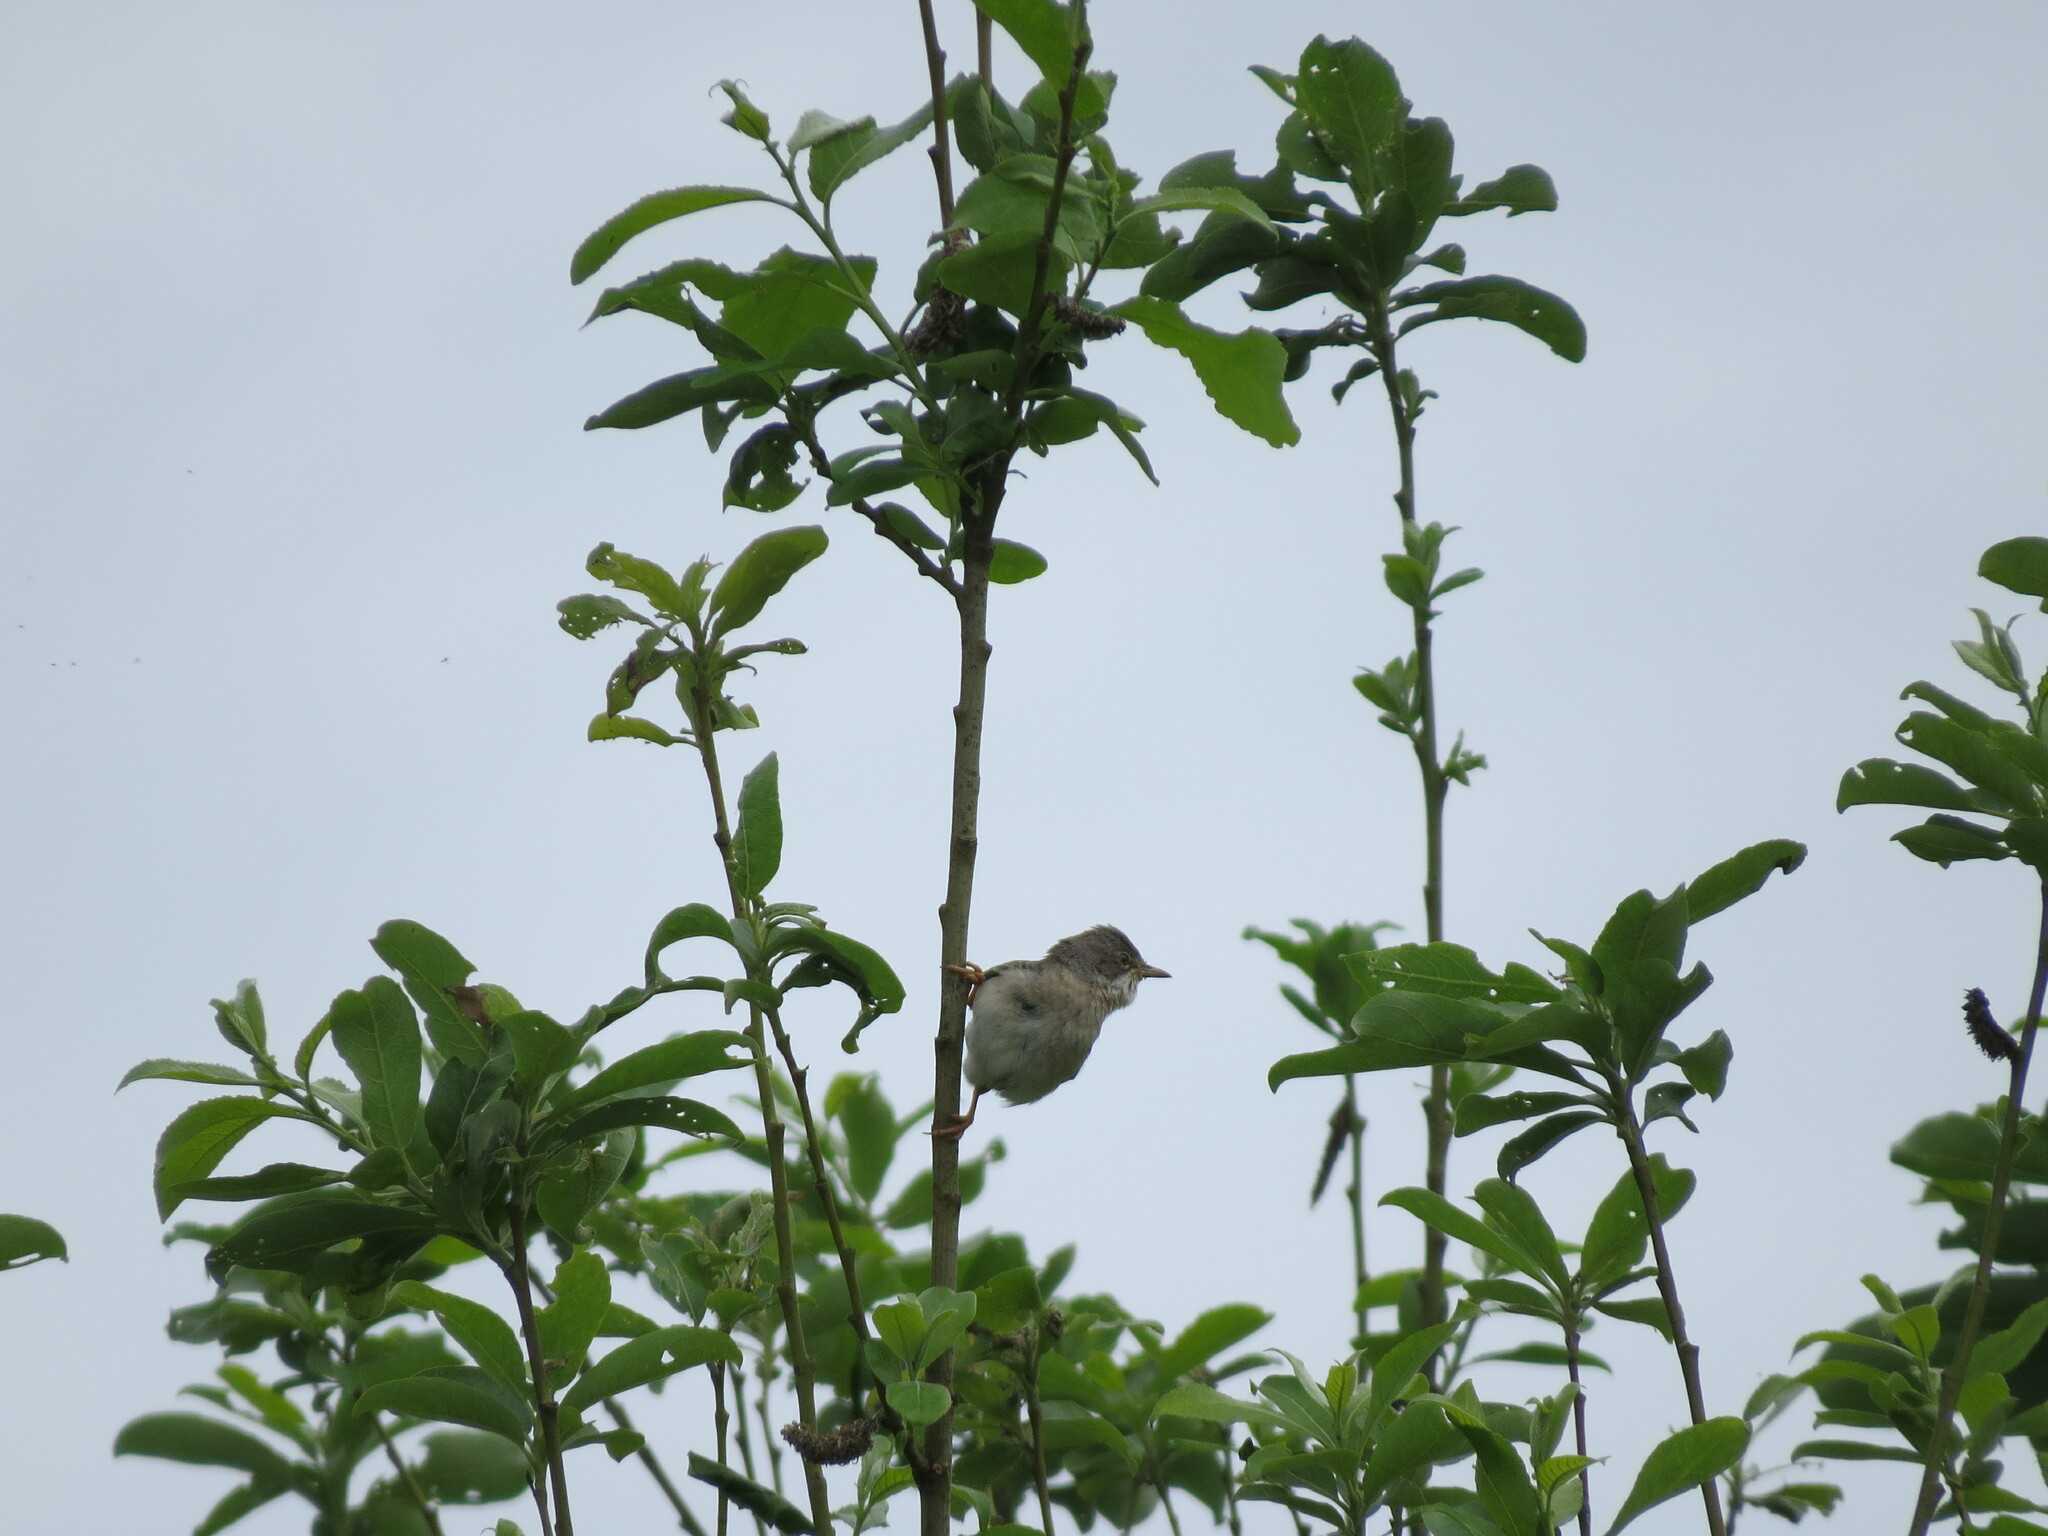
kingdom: Animalia
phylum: Chordata
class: Aves
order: Passeriformes
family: Sylviidae
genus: Sylvia
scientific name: Sylvia communis
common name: Common whitethroat
